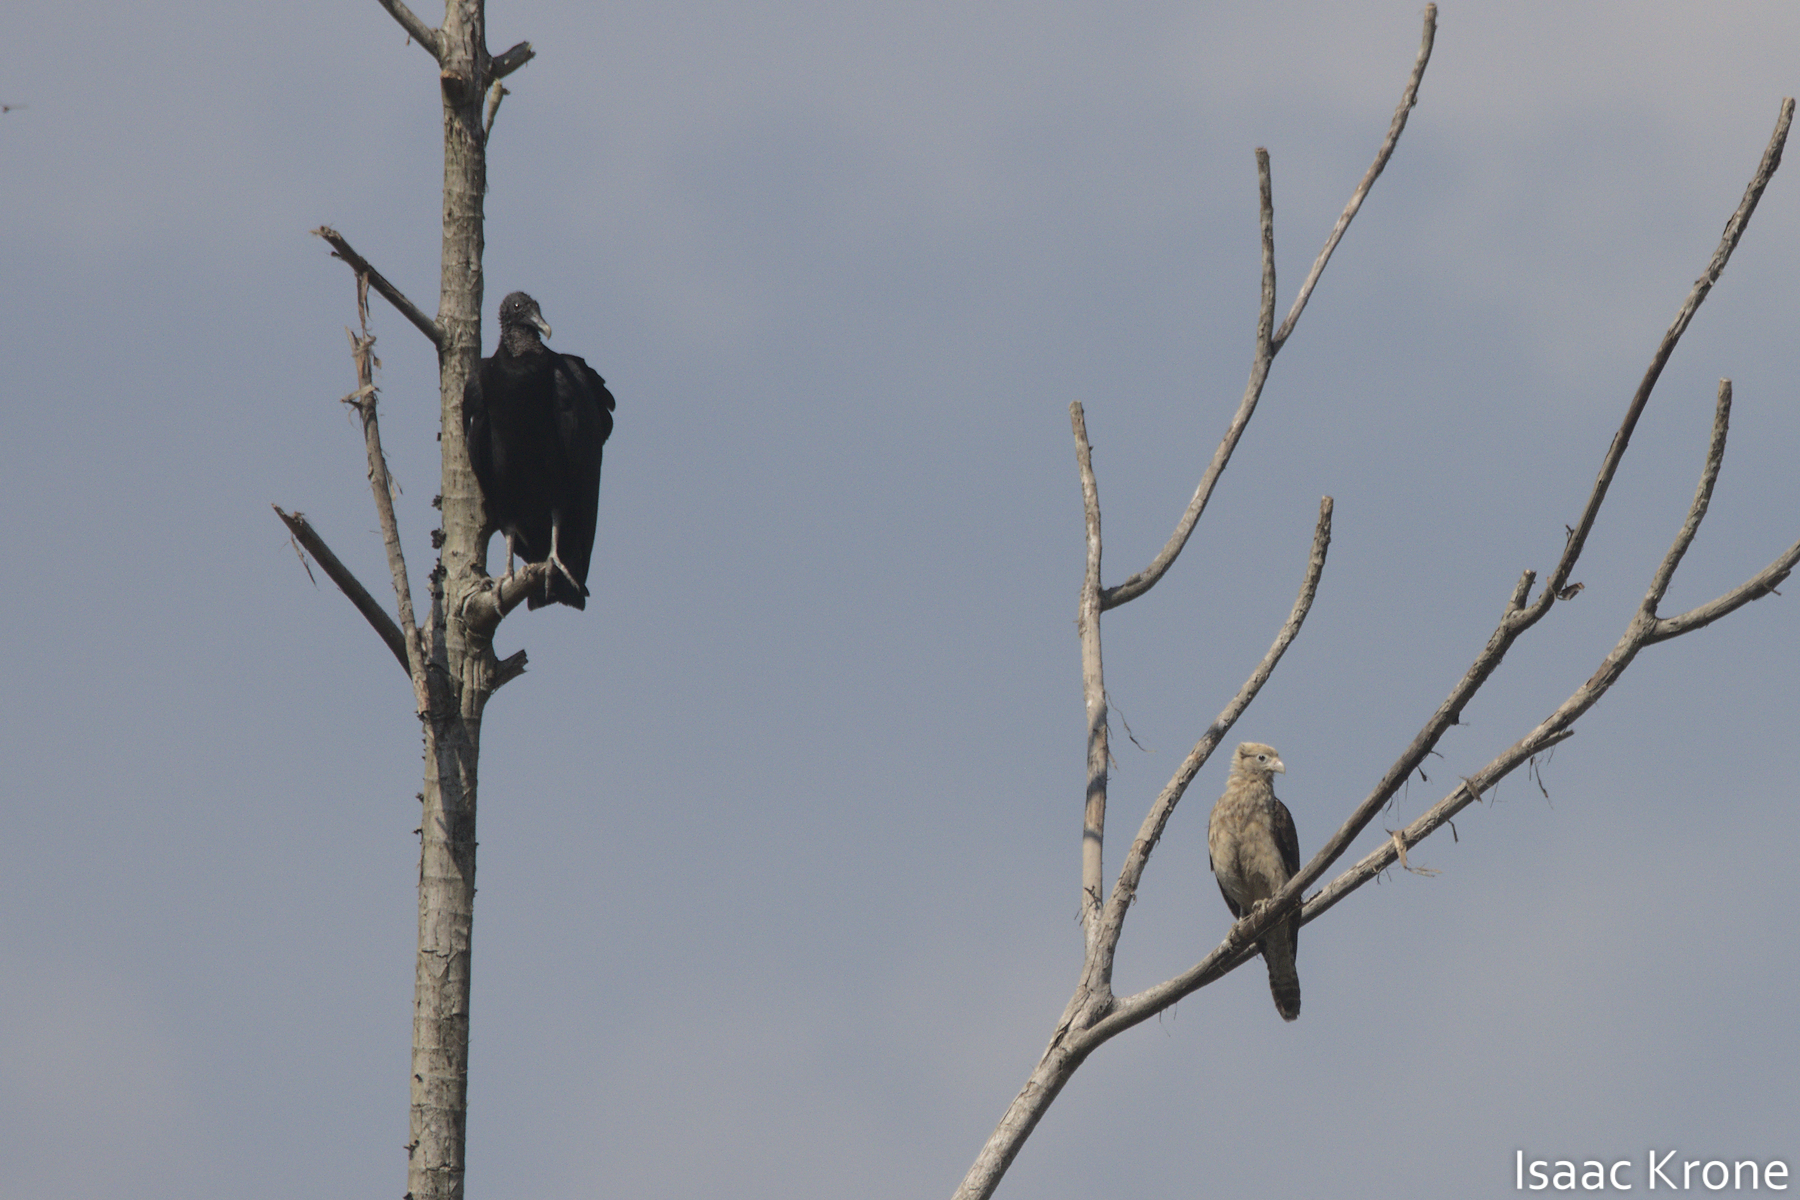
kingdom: Animalia
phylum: Chordata
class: Aves
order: Falconiformes
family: Falconidae
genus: Daptrius
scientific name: Daptrius
